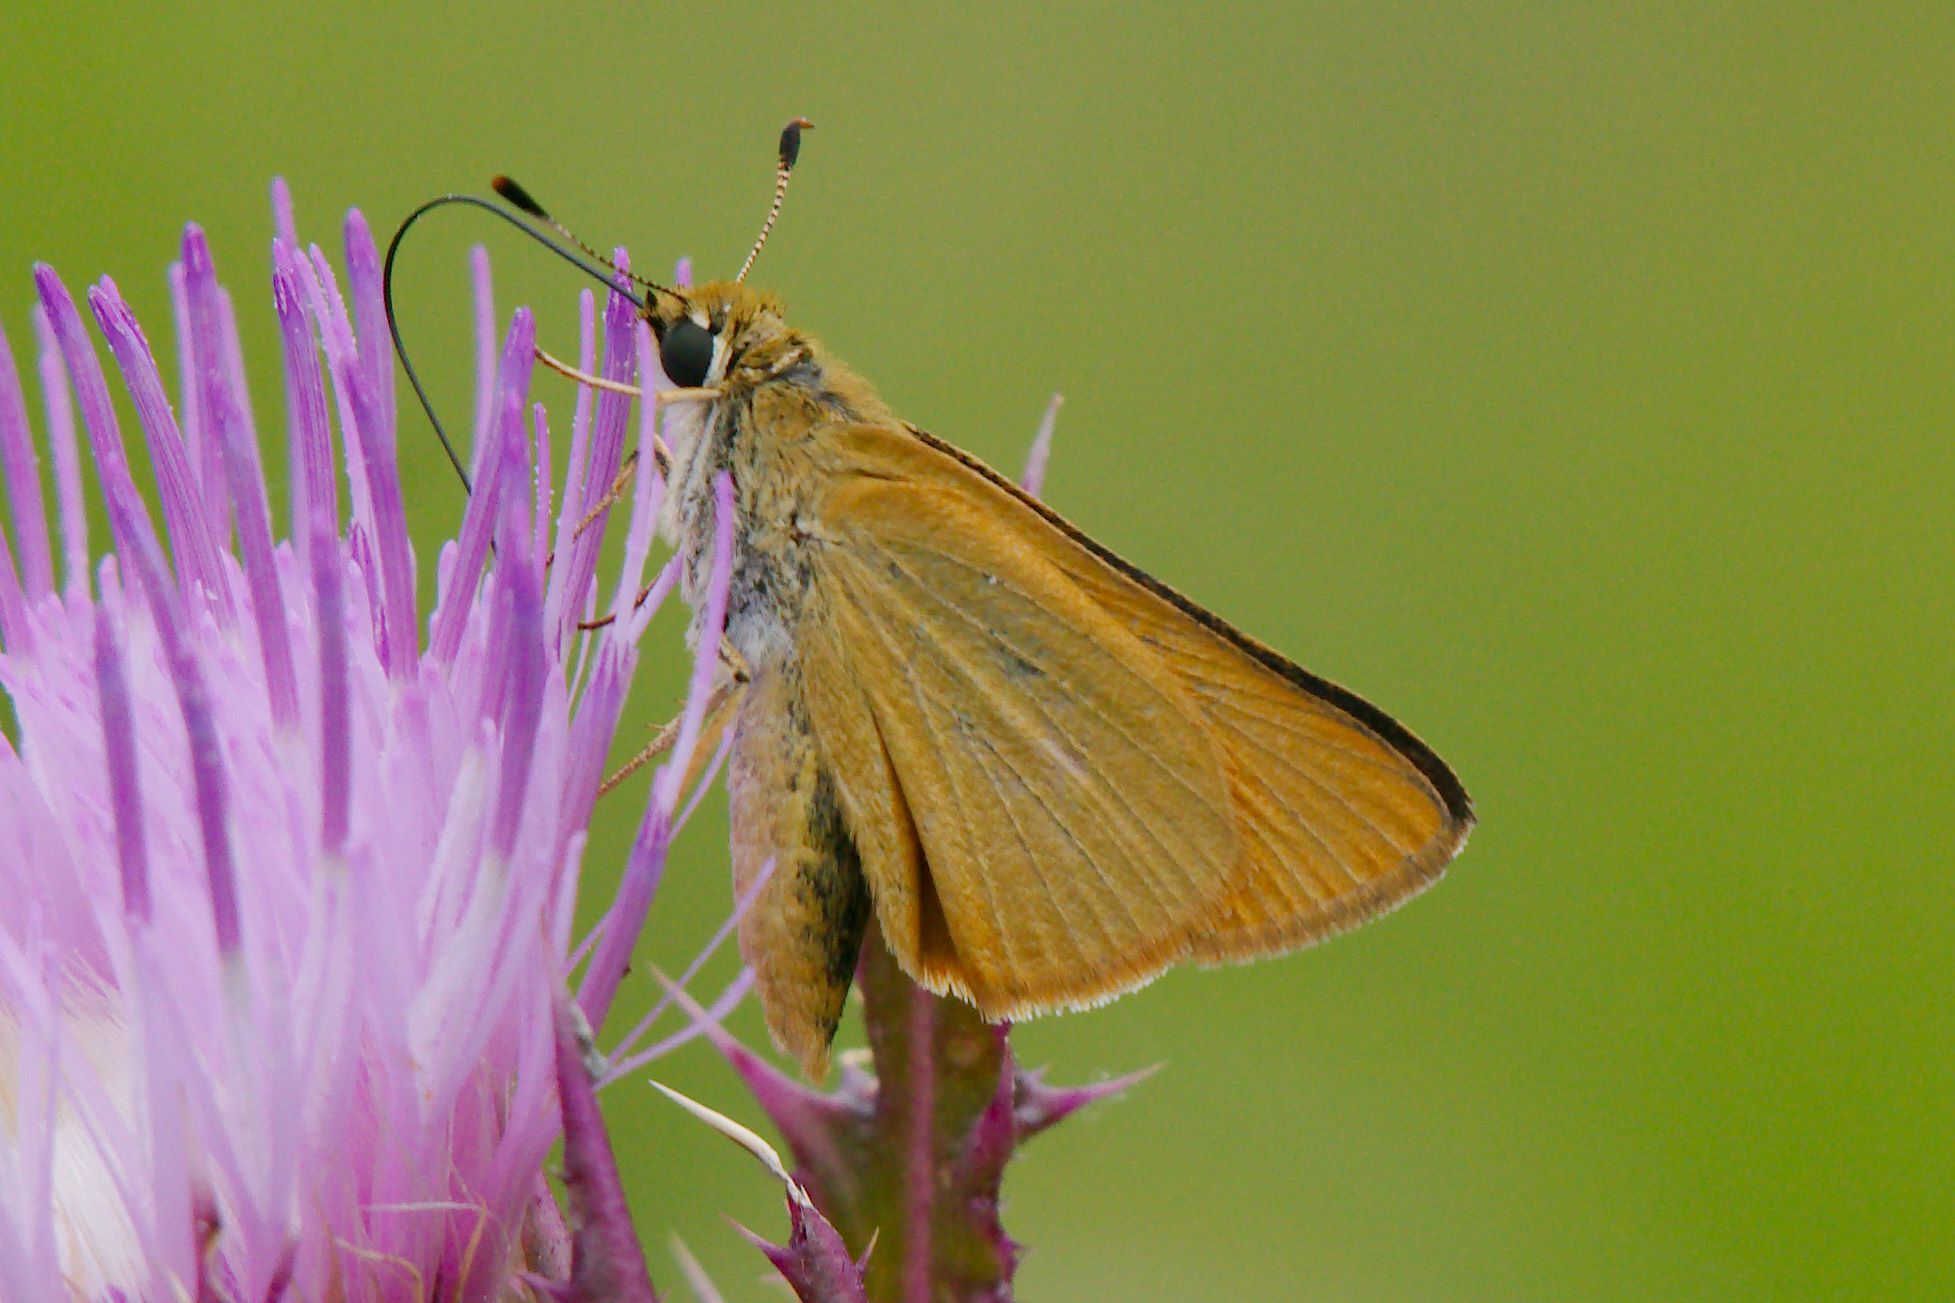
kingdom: Animalia
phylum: Arthropoda
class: Insecta
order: Lepidoptera
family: Hesperiidae
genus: Atrytone
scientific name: Atrytone delaware
